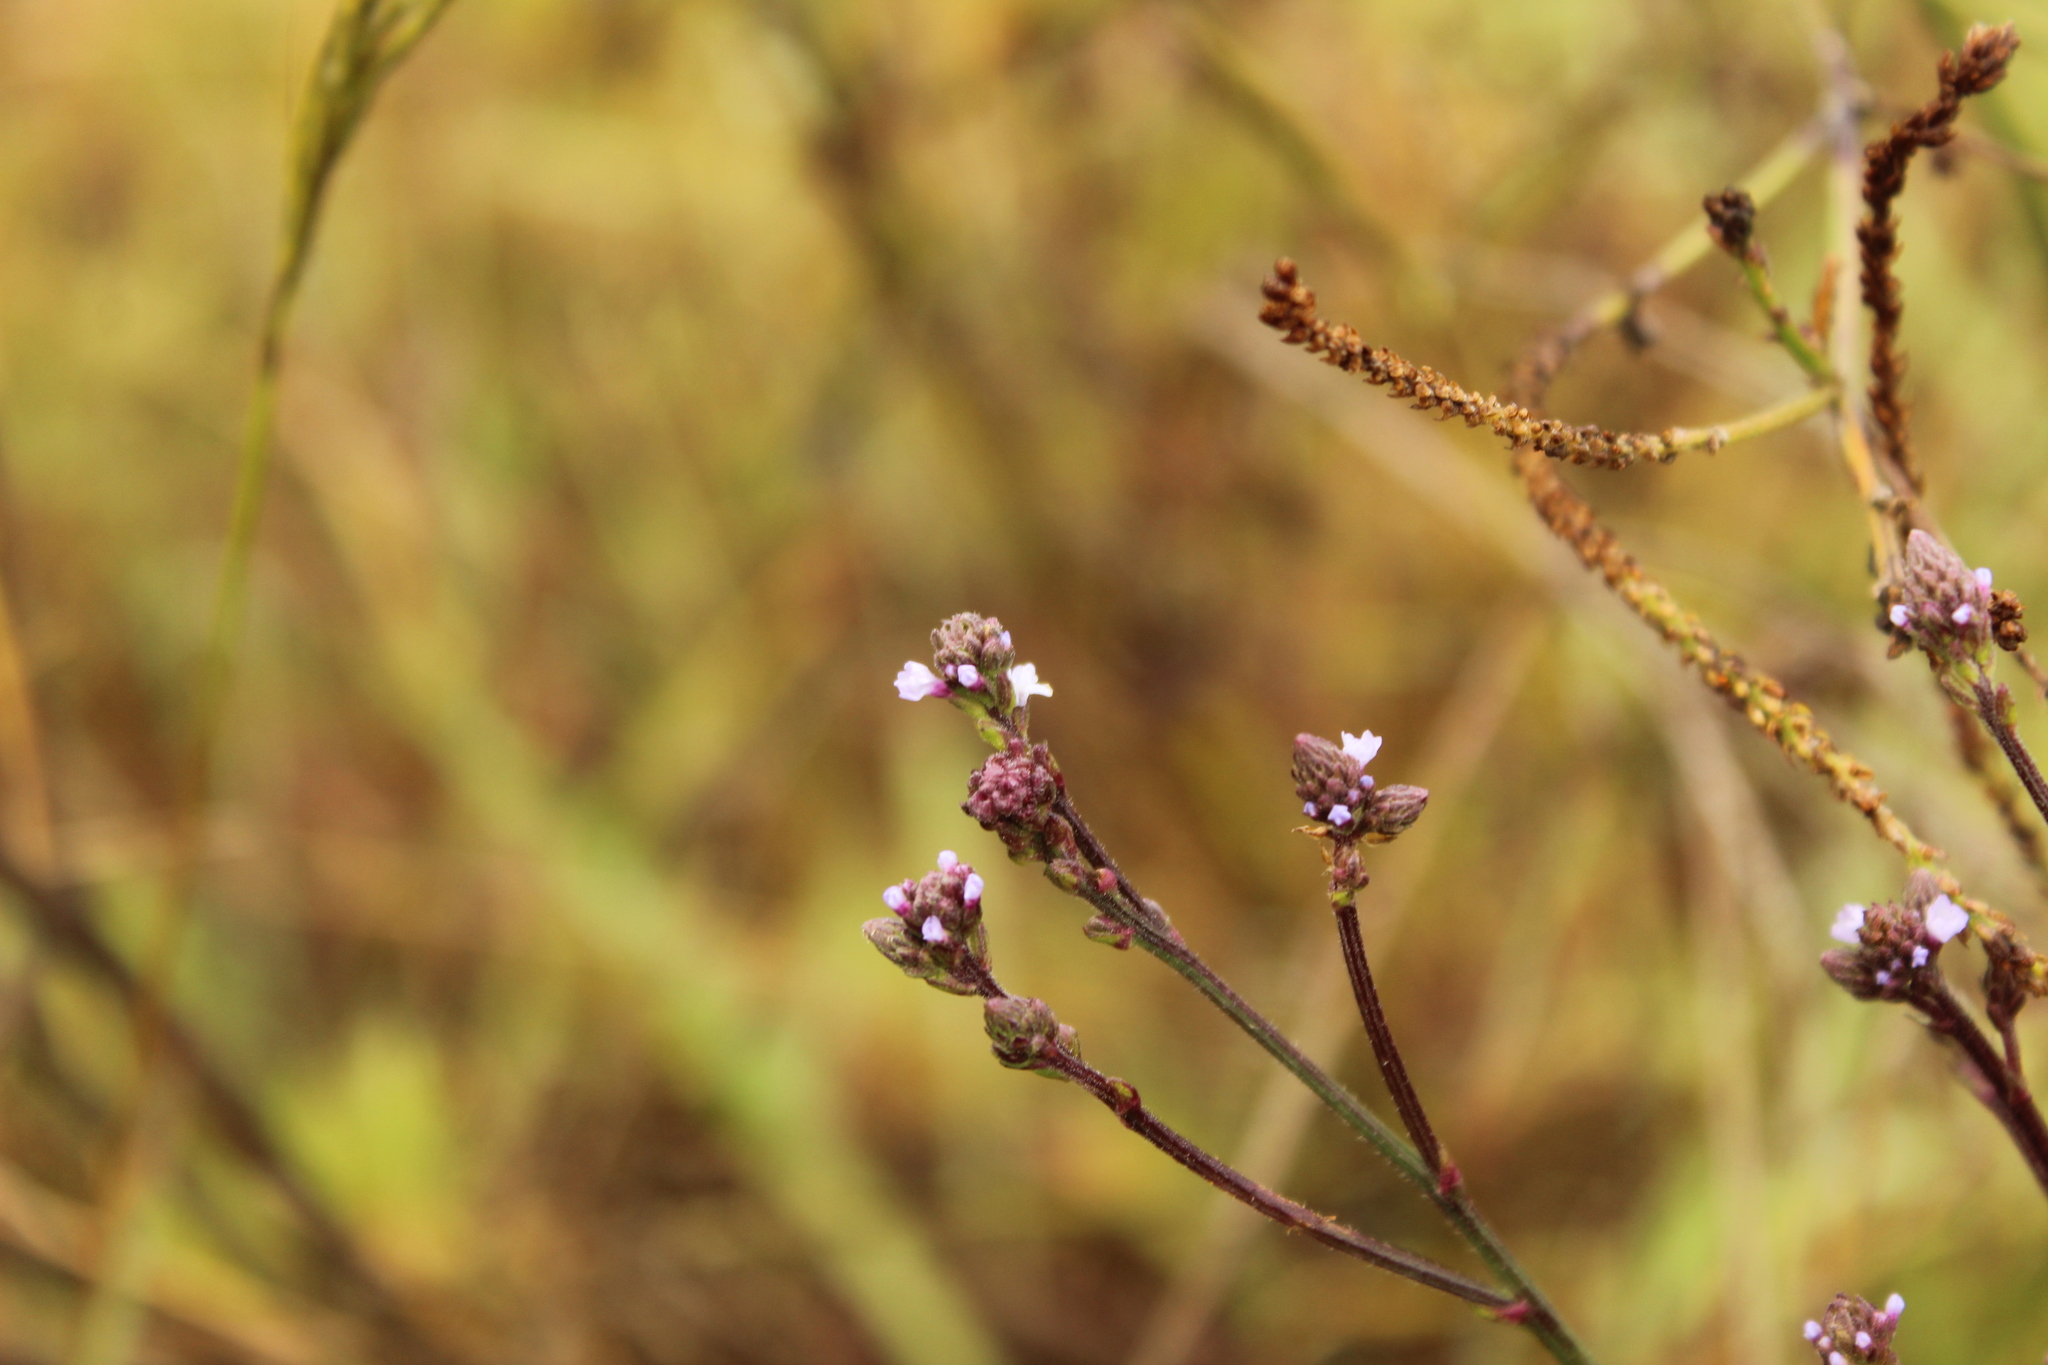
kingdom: Plantae
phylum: Tracheophyta
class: Magnoliopsida
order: Lamiales
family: Verbenaceae
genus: Verbena
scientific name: Verbena litoralis
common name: Seashore vervain
